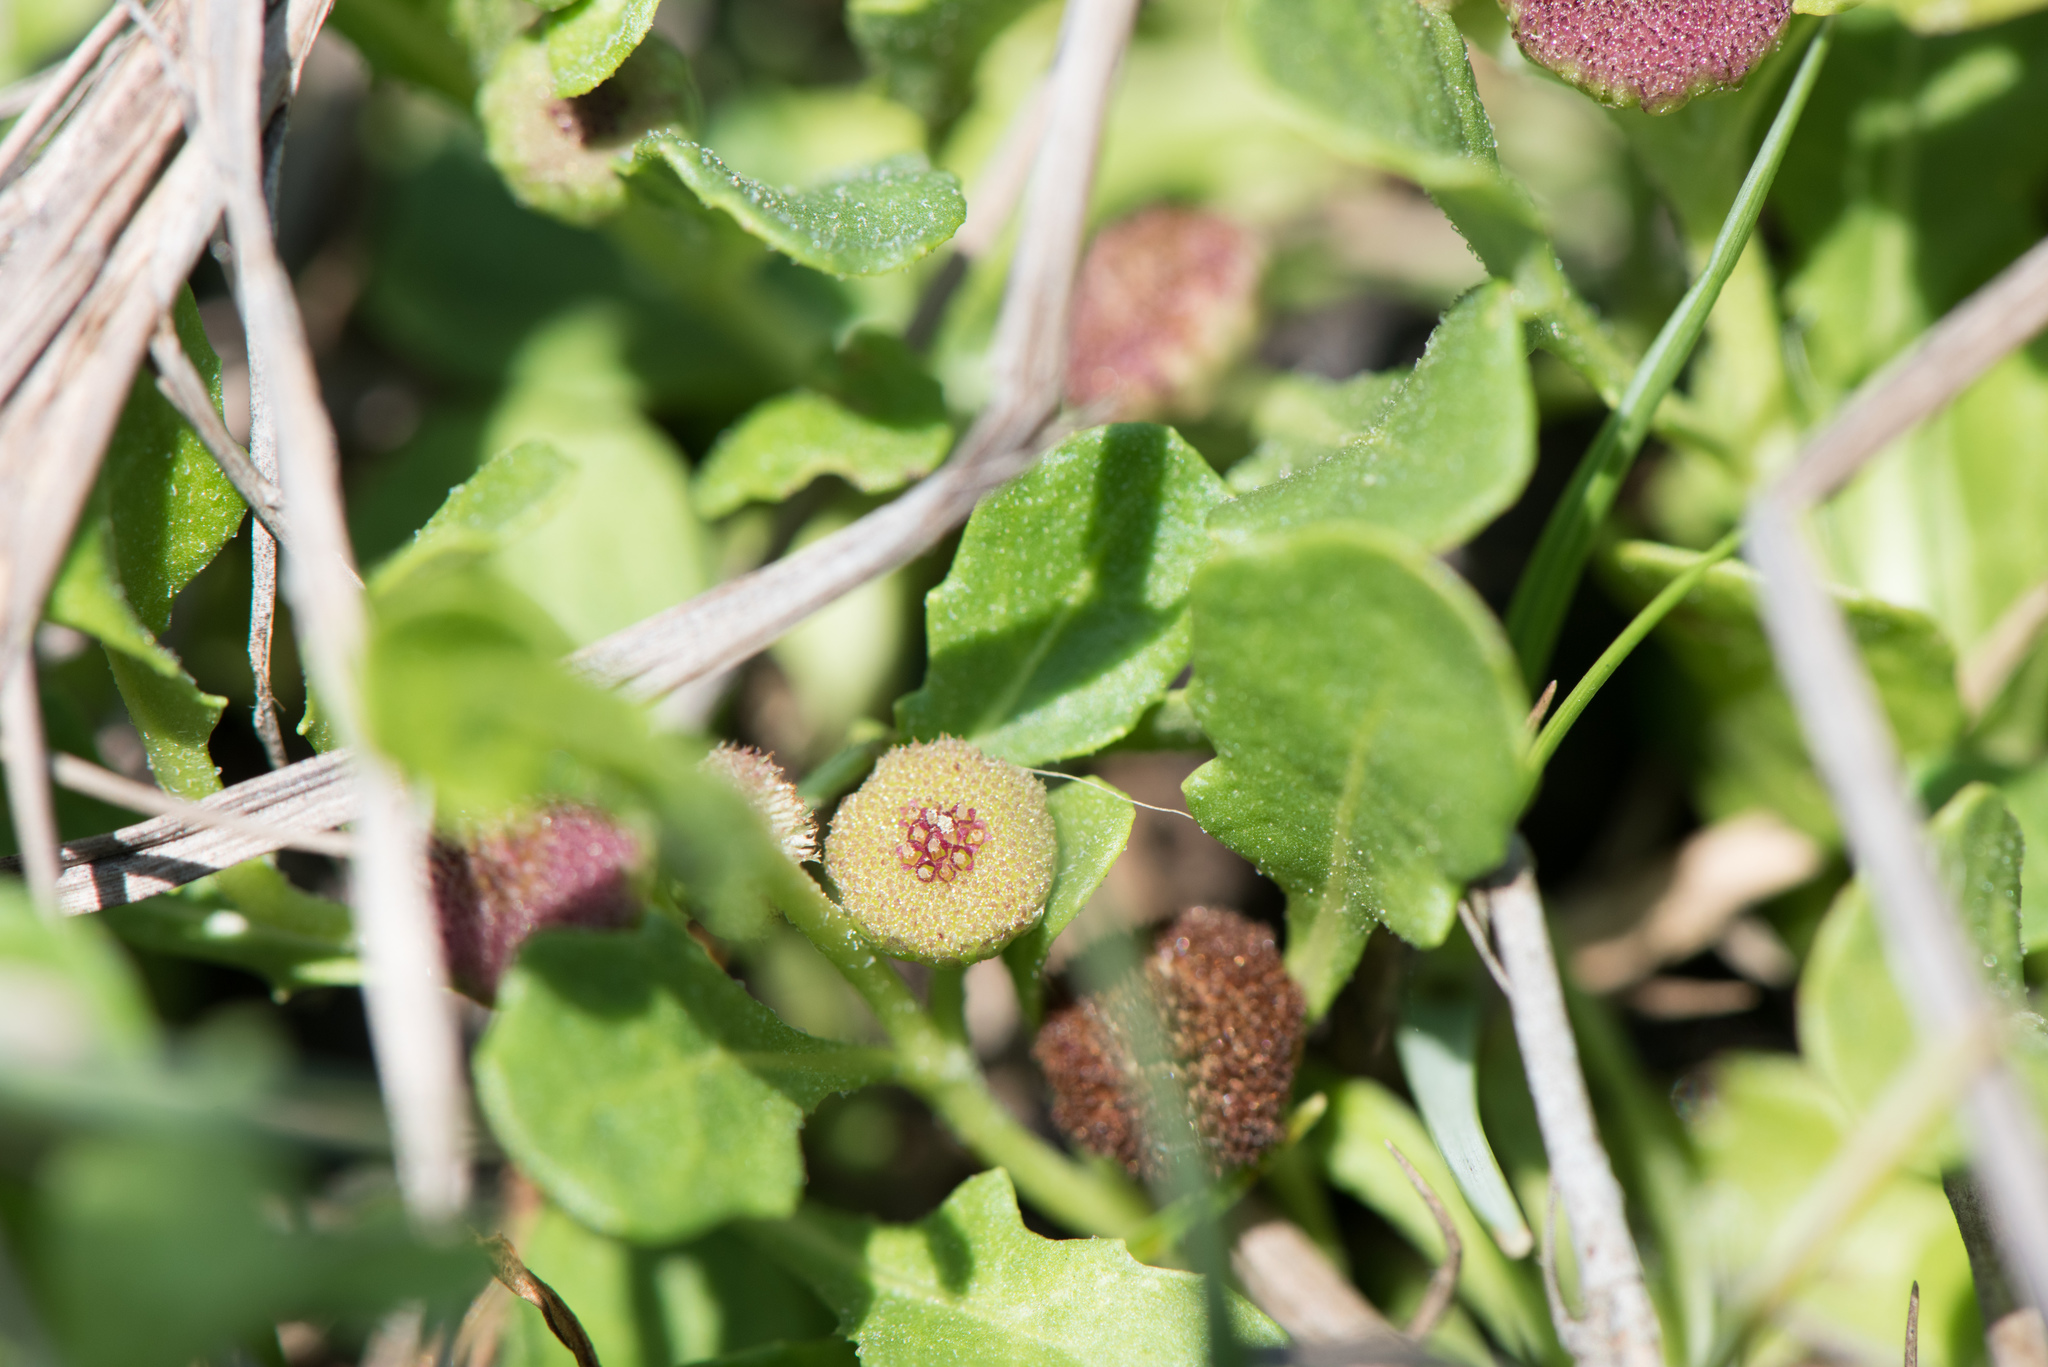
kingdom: Plantae
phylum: Tracheophyta
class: Magnoliopsida
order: Asterales
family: Asteraceae
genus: Sphaeromorphaea
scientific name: Sphaeromorphaea australis
